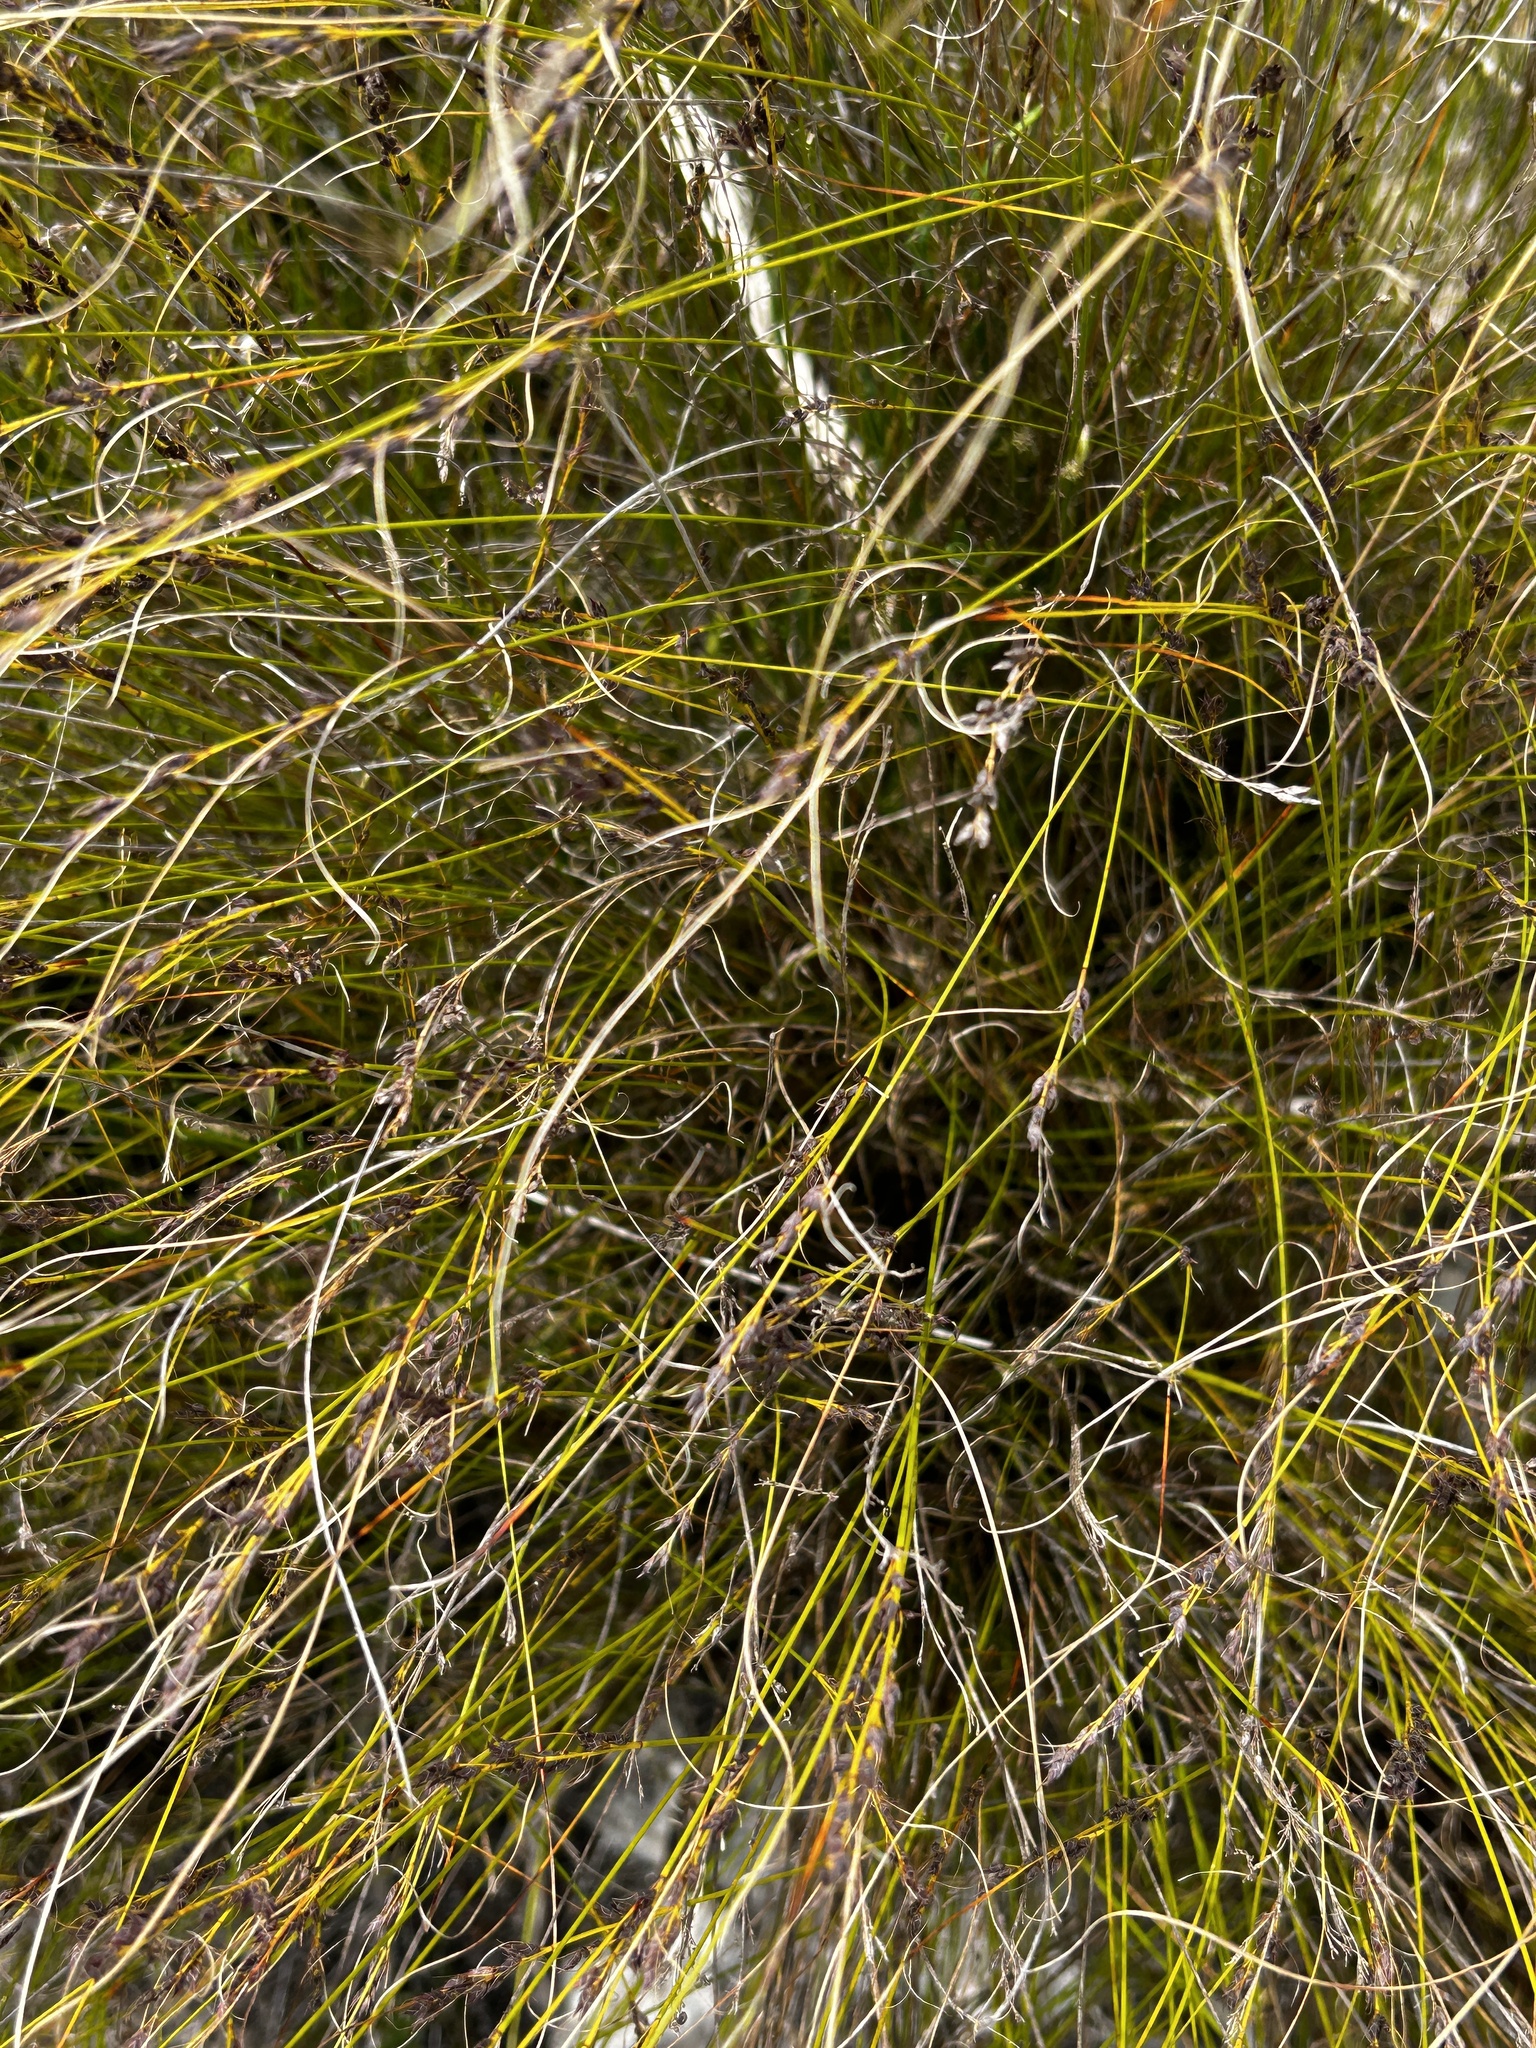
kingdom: Plantae
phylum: Tracheophyta
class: Liliopsida
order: Poales
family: Cyperaceae
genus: Schoenus
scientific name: Schoenus calceolus
